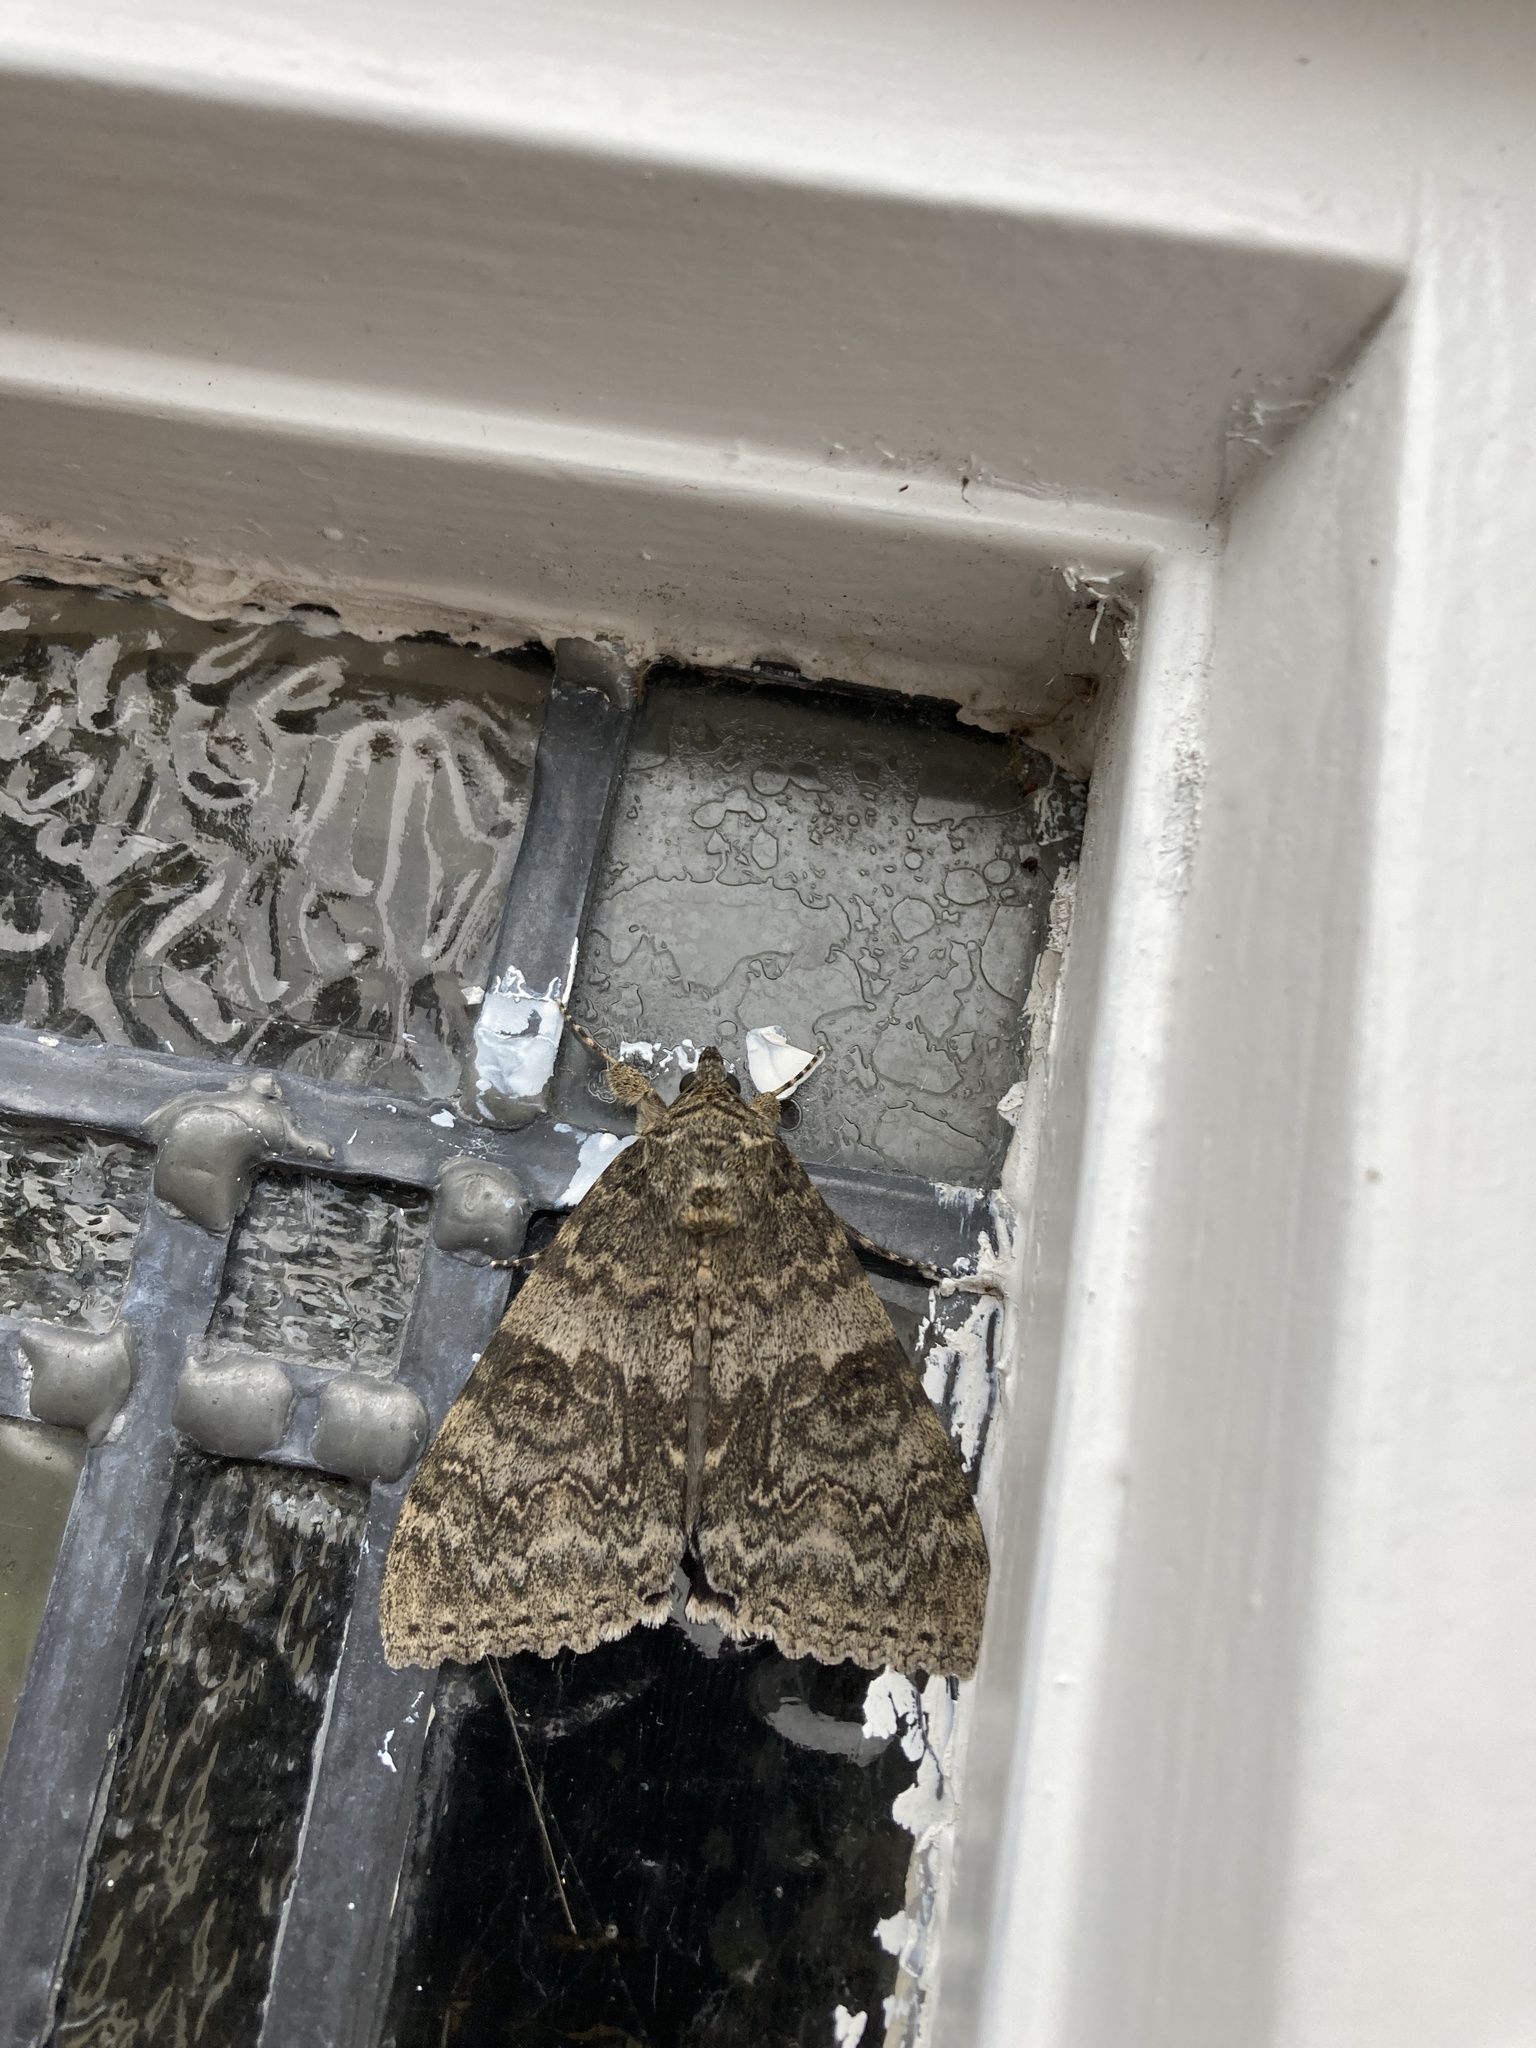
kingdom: Animalia
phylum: Arthropoda
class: Insecta
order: Lepidoptera
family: Erebidae
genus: Catocala
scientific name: Catocala nupta
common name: Red underwing
